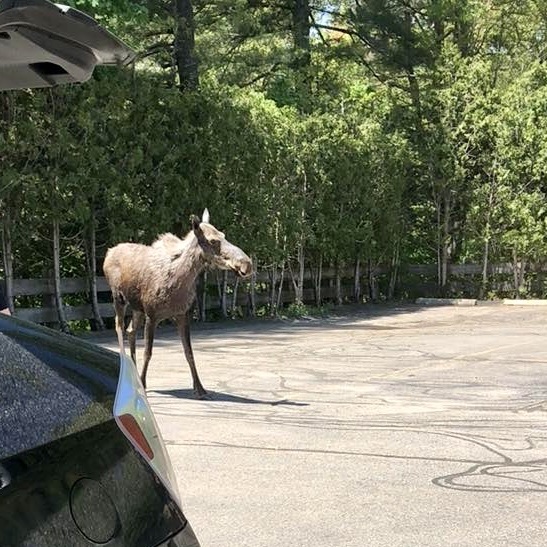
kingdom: Animalia
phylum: Chordata
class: Mammalia
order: Artiodactyla
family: Cervidae
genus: Alces
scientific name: Alces alces
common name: Moose
